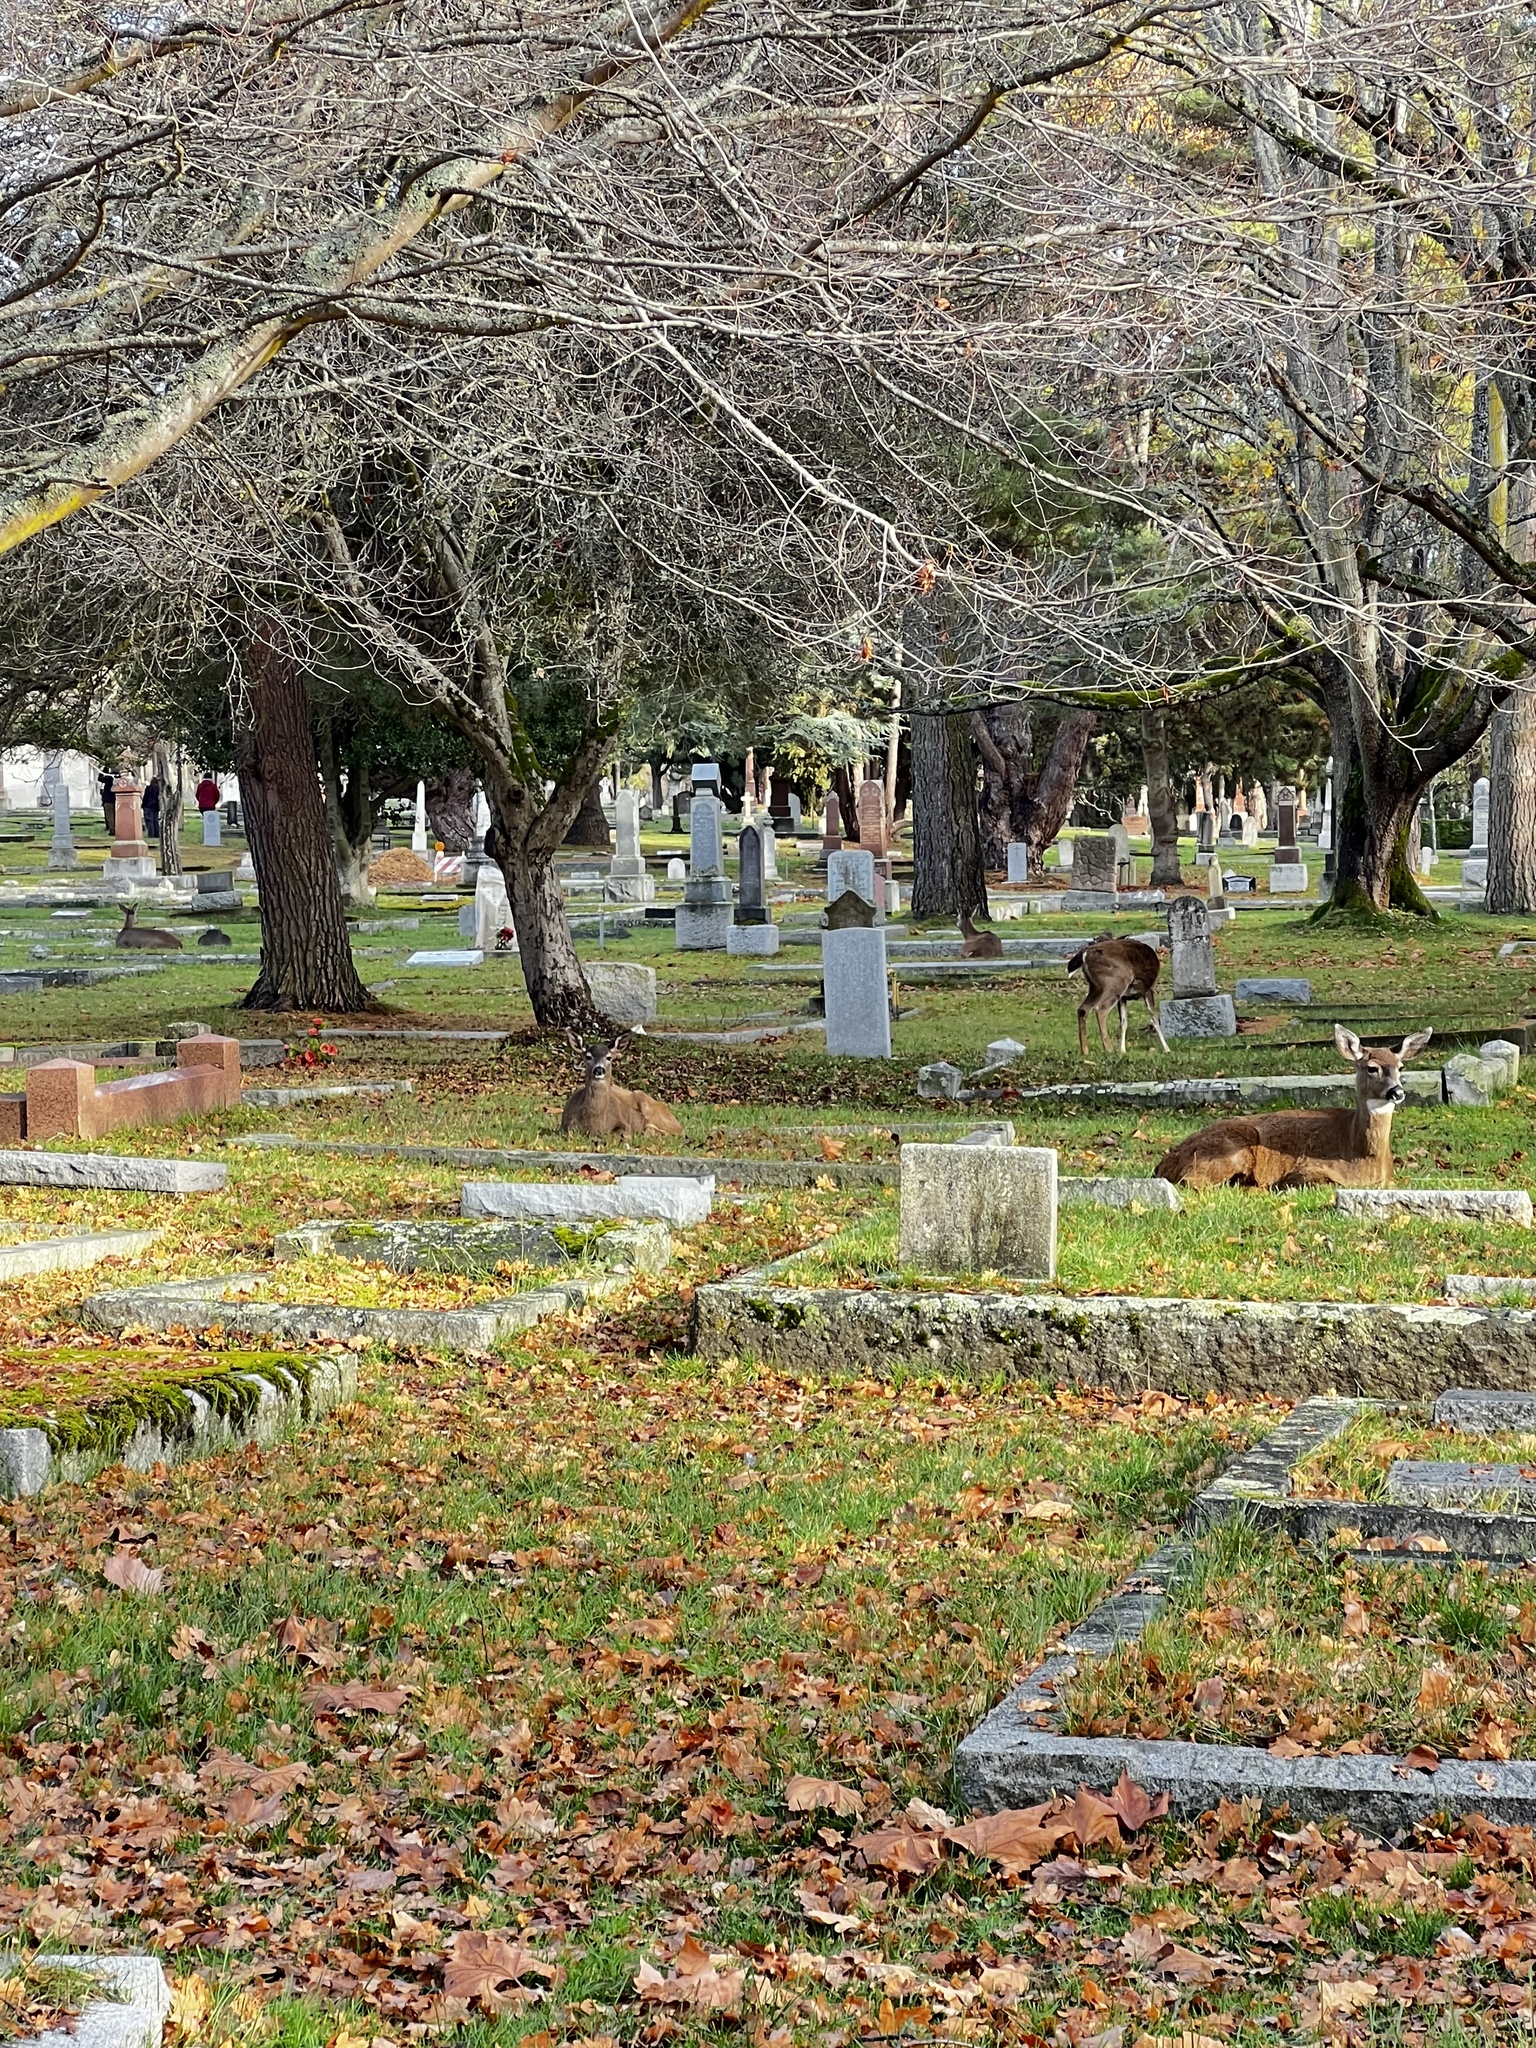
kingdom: Animalia
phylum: Chordata
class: Mammalia
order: Artiodactyla
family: Cervidae
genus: Odocoileus
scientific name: Odocoileus hemionus
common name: Mule deer
